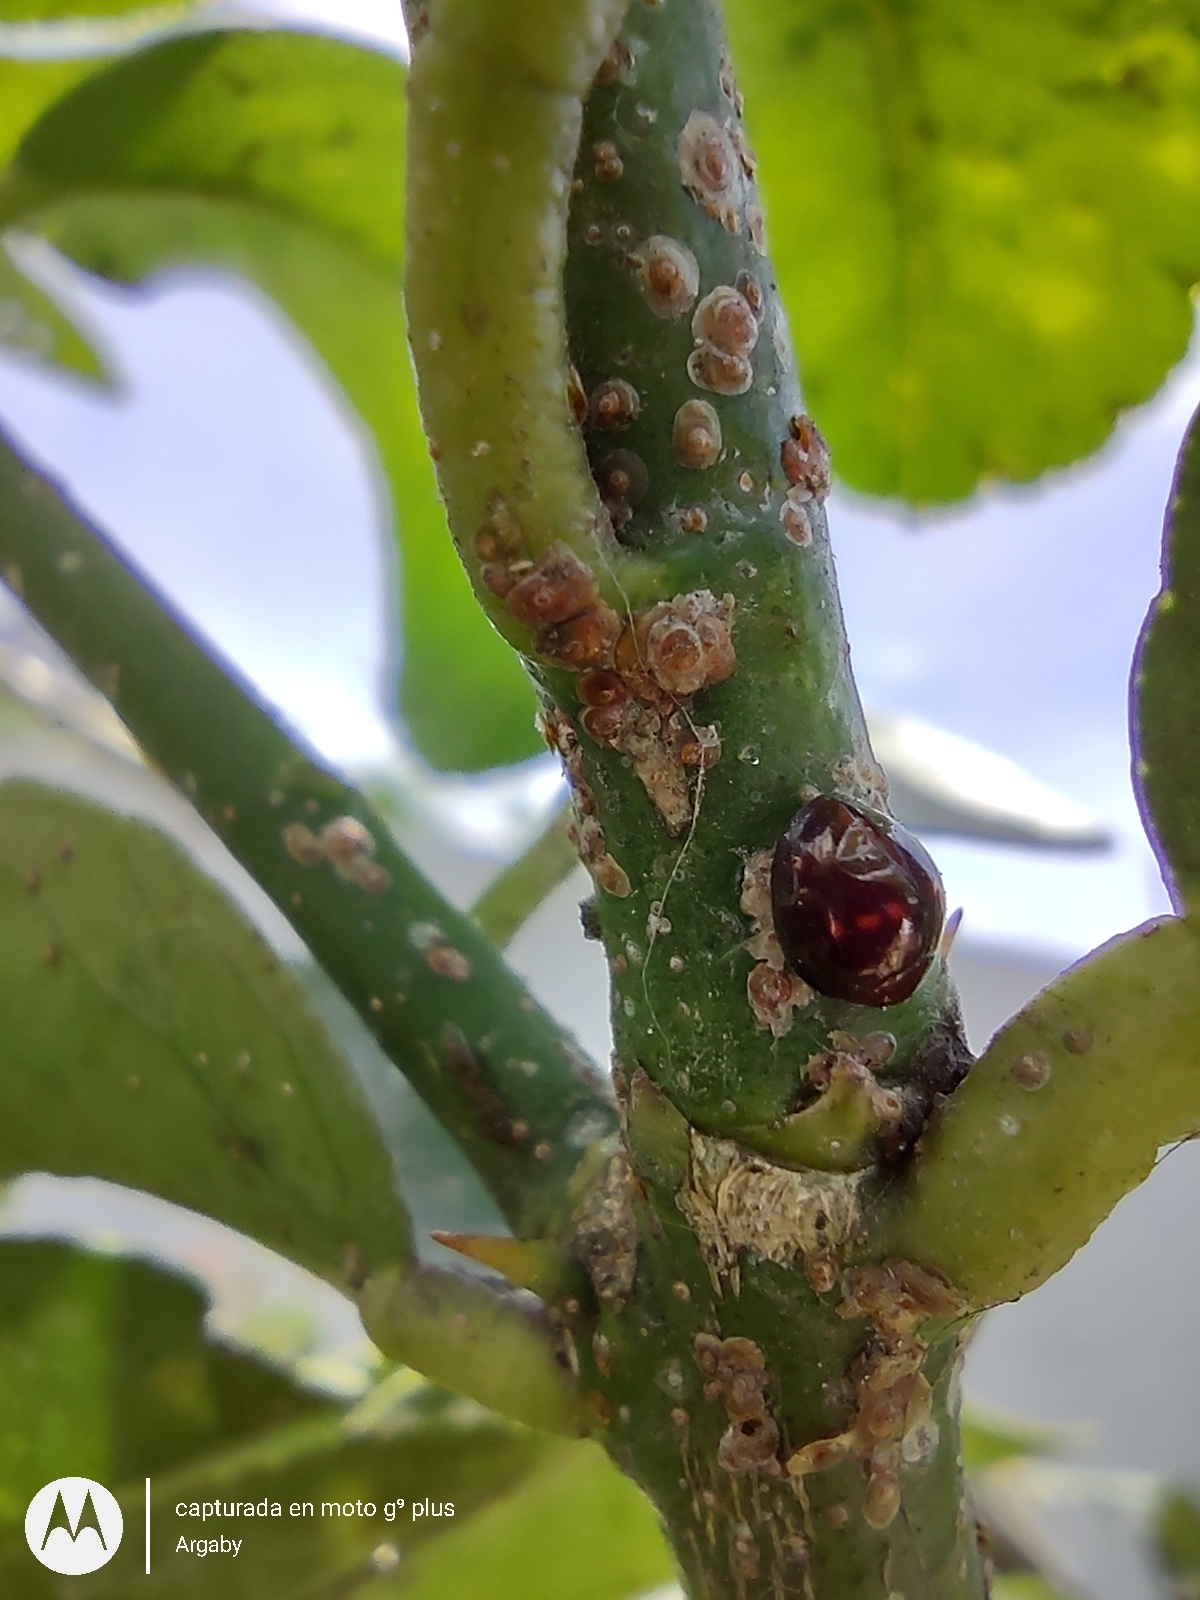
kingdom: Animalia
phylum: Arthropoda
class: Insecta
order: Coleoptera
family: Coccinellidae
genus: Chilocorus
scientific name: Chilocorus bipustulatus
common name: Heather ladybird
